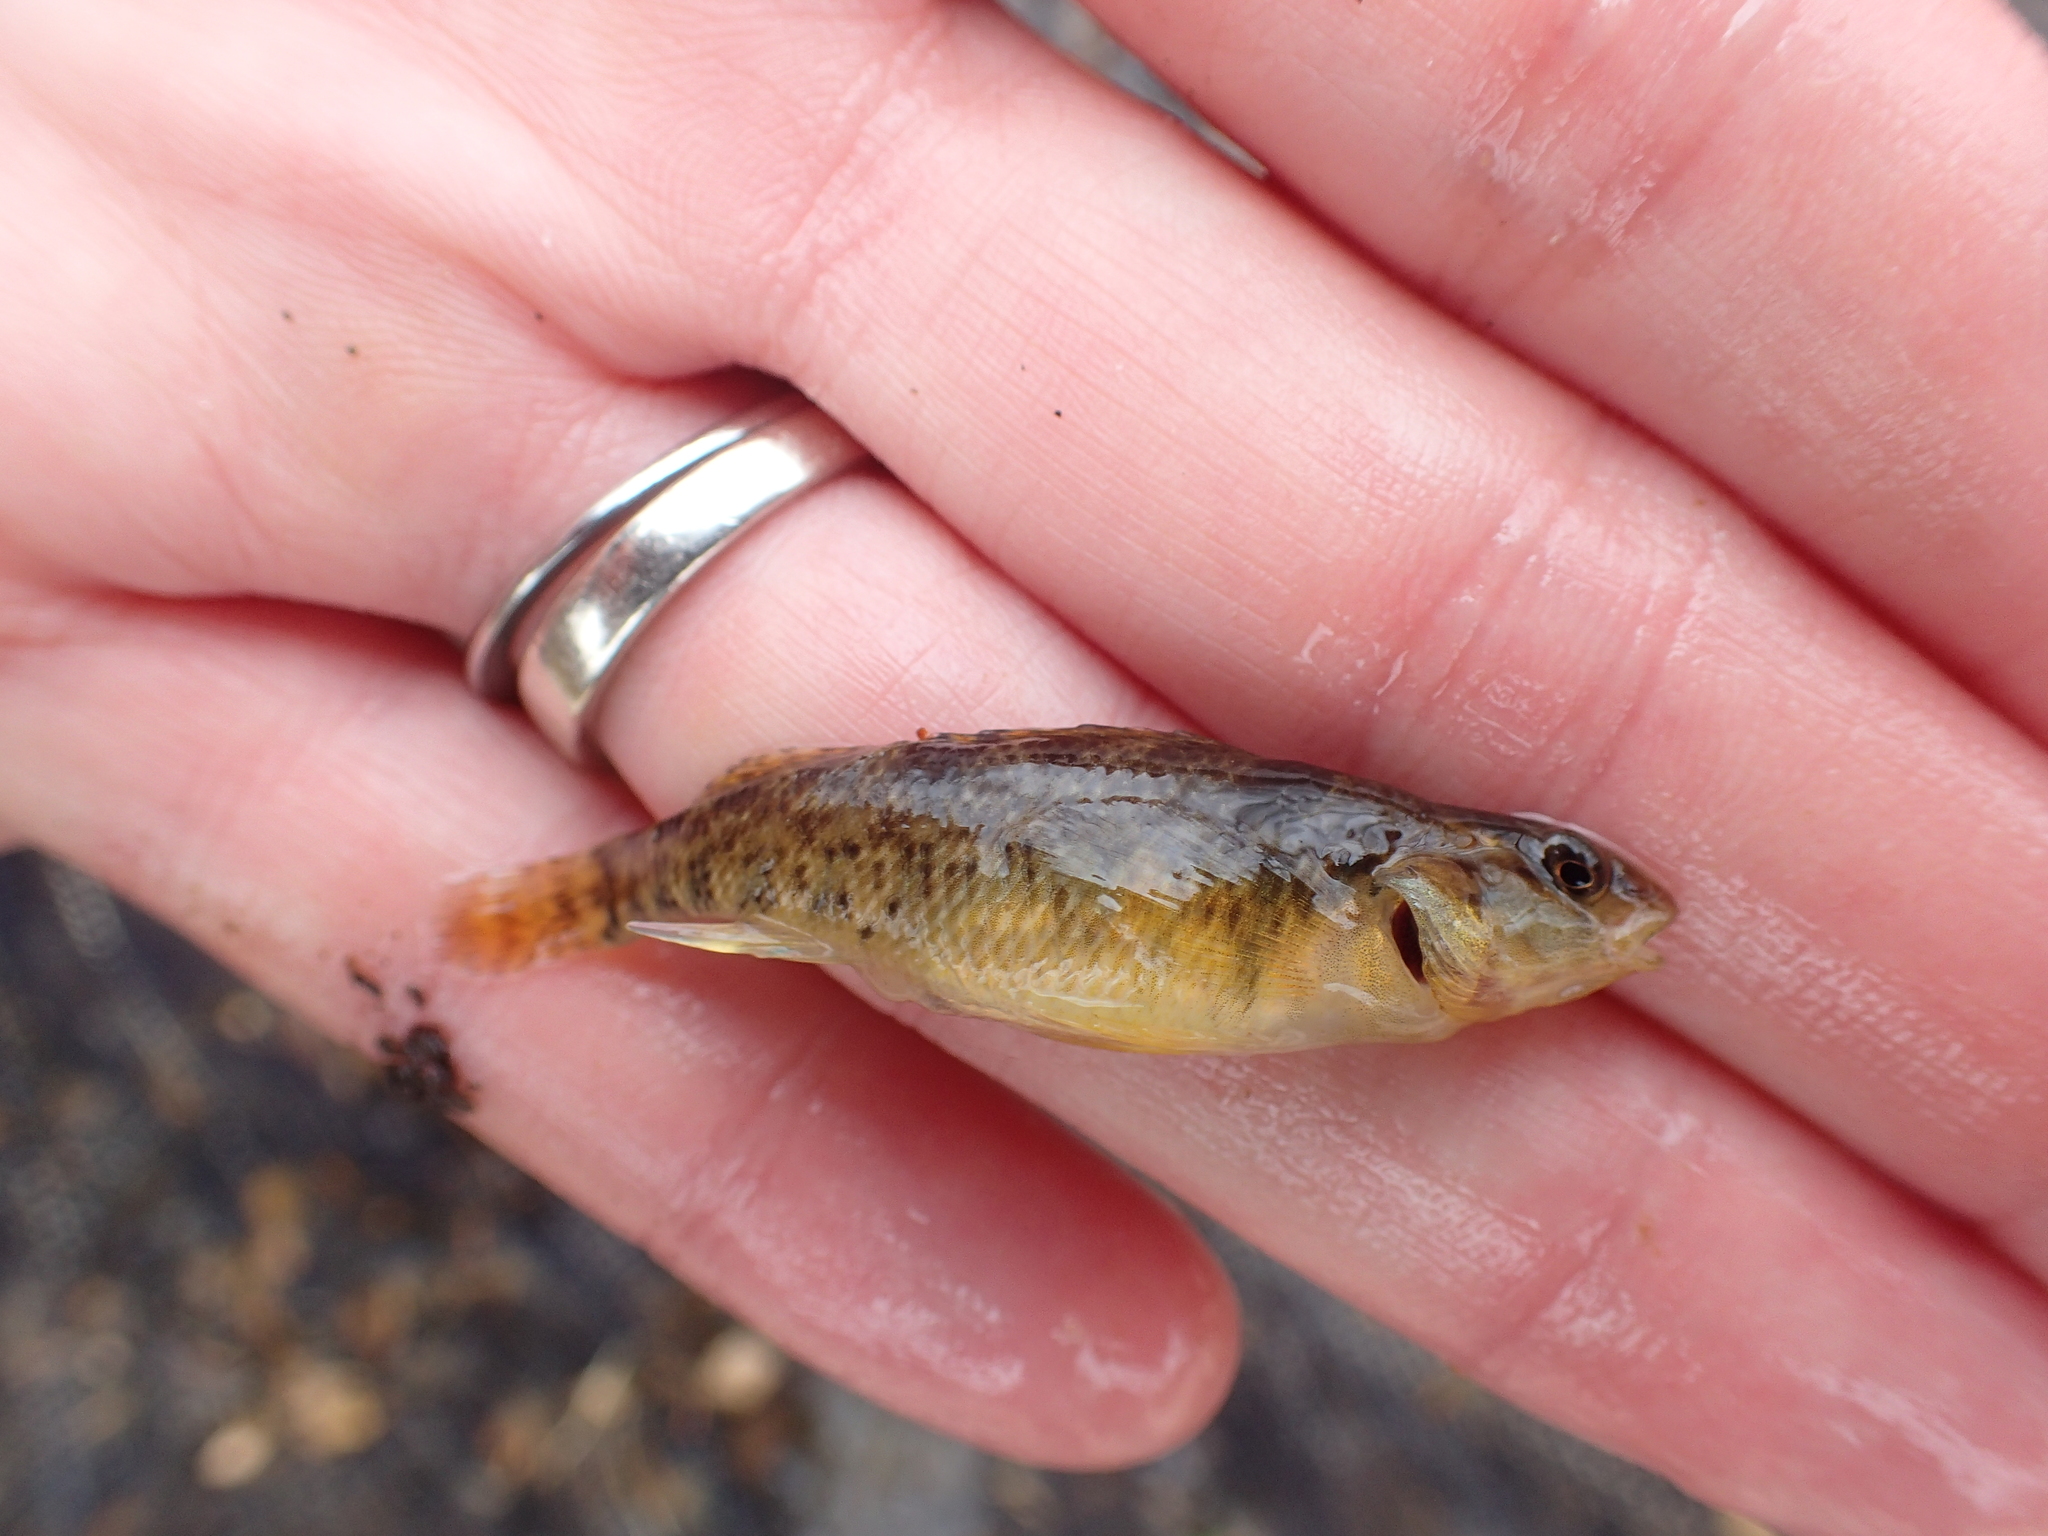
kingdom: Animalia
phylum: Chordata
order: Perciformes
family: Percidae
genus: Etheostoma
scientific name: Etheostoma caeruleum
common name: Rainbow darter
